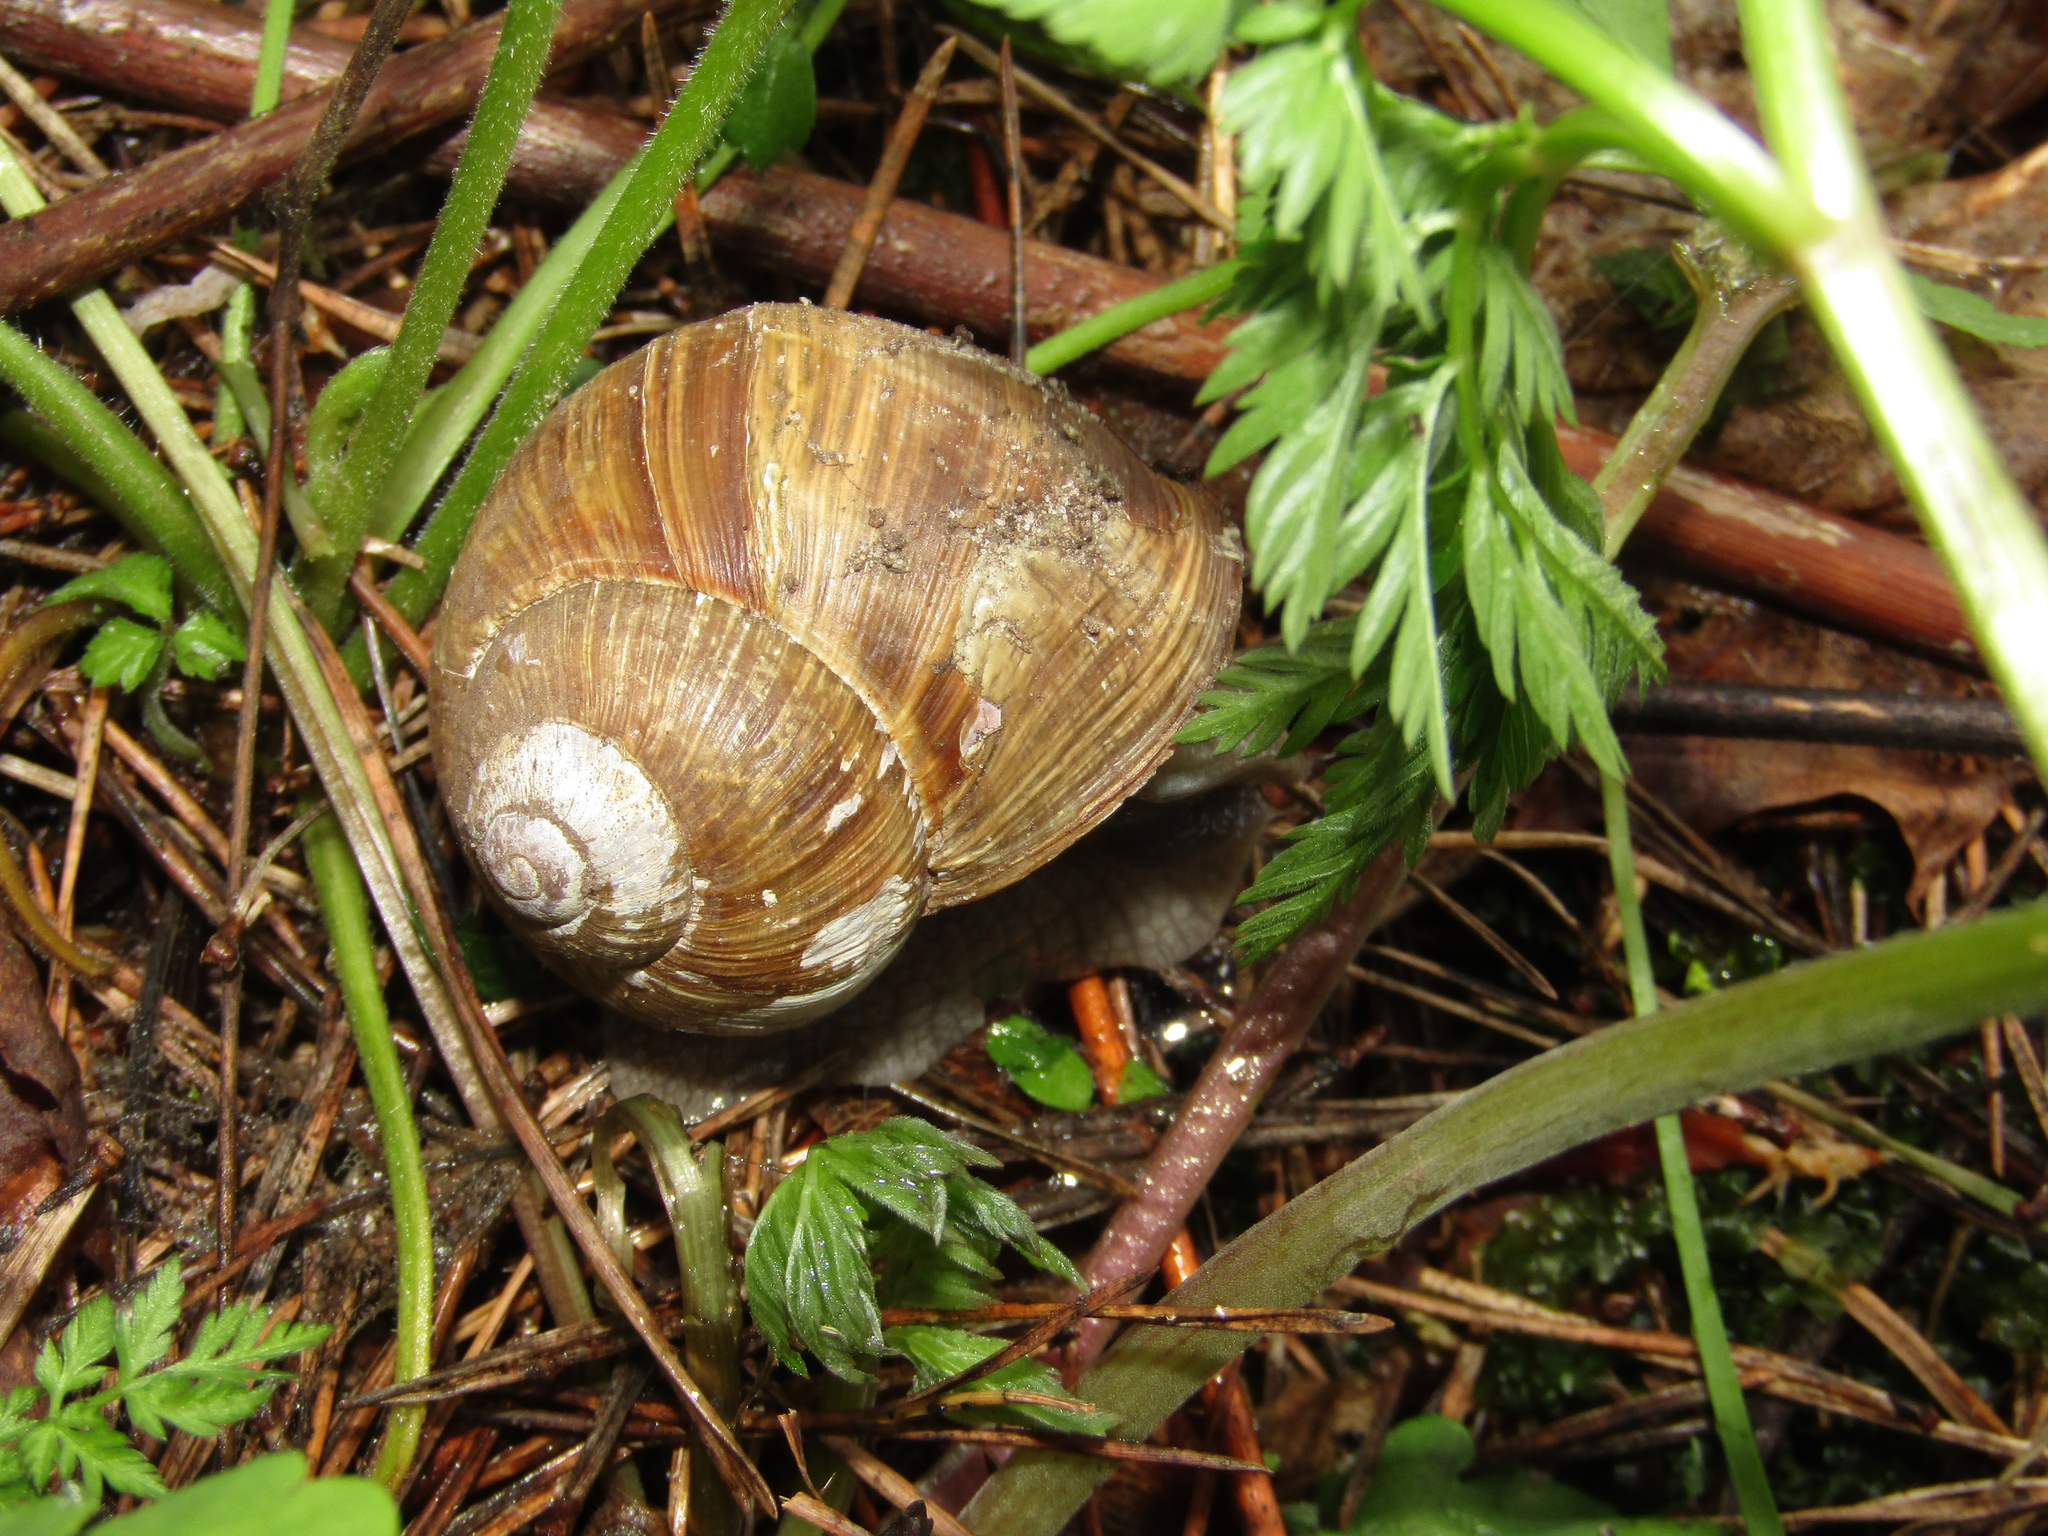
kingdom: Animalia
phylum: Mollusca
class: Gastropoda
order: Stylommatophora
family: Helicidae
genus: Helix
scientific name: Helix pomatia
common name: Roman snail
